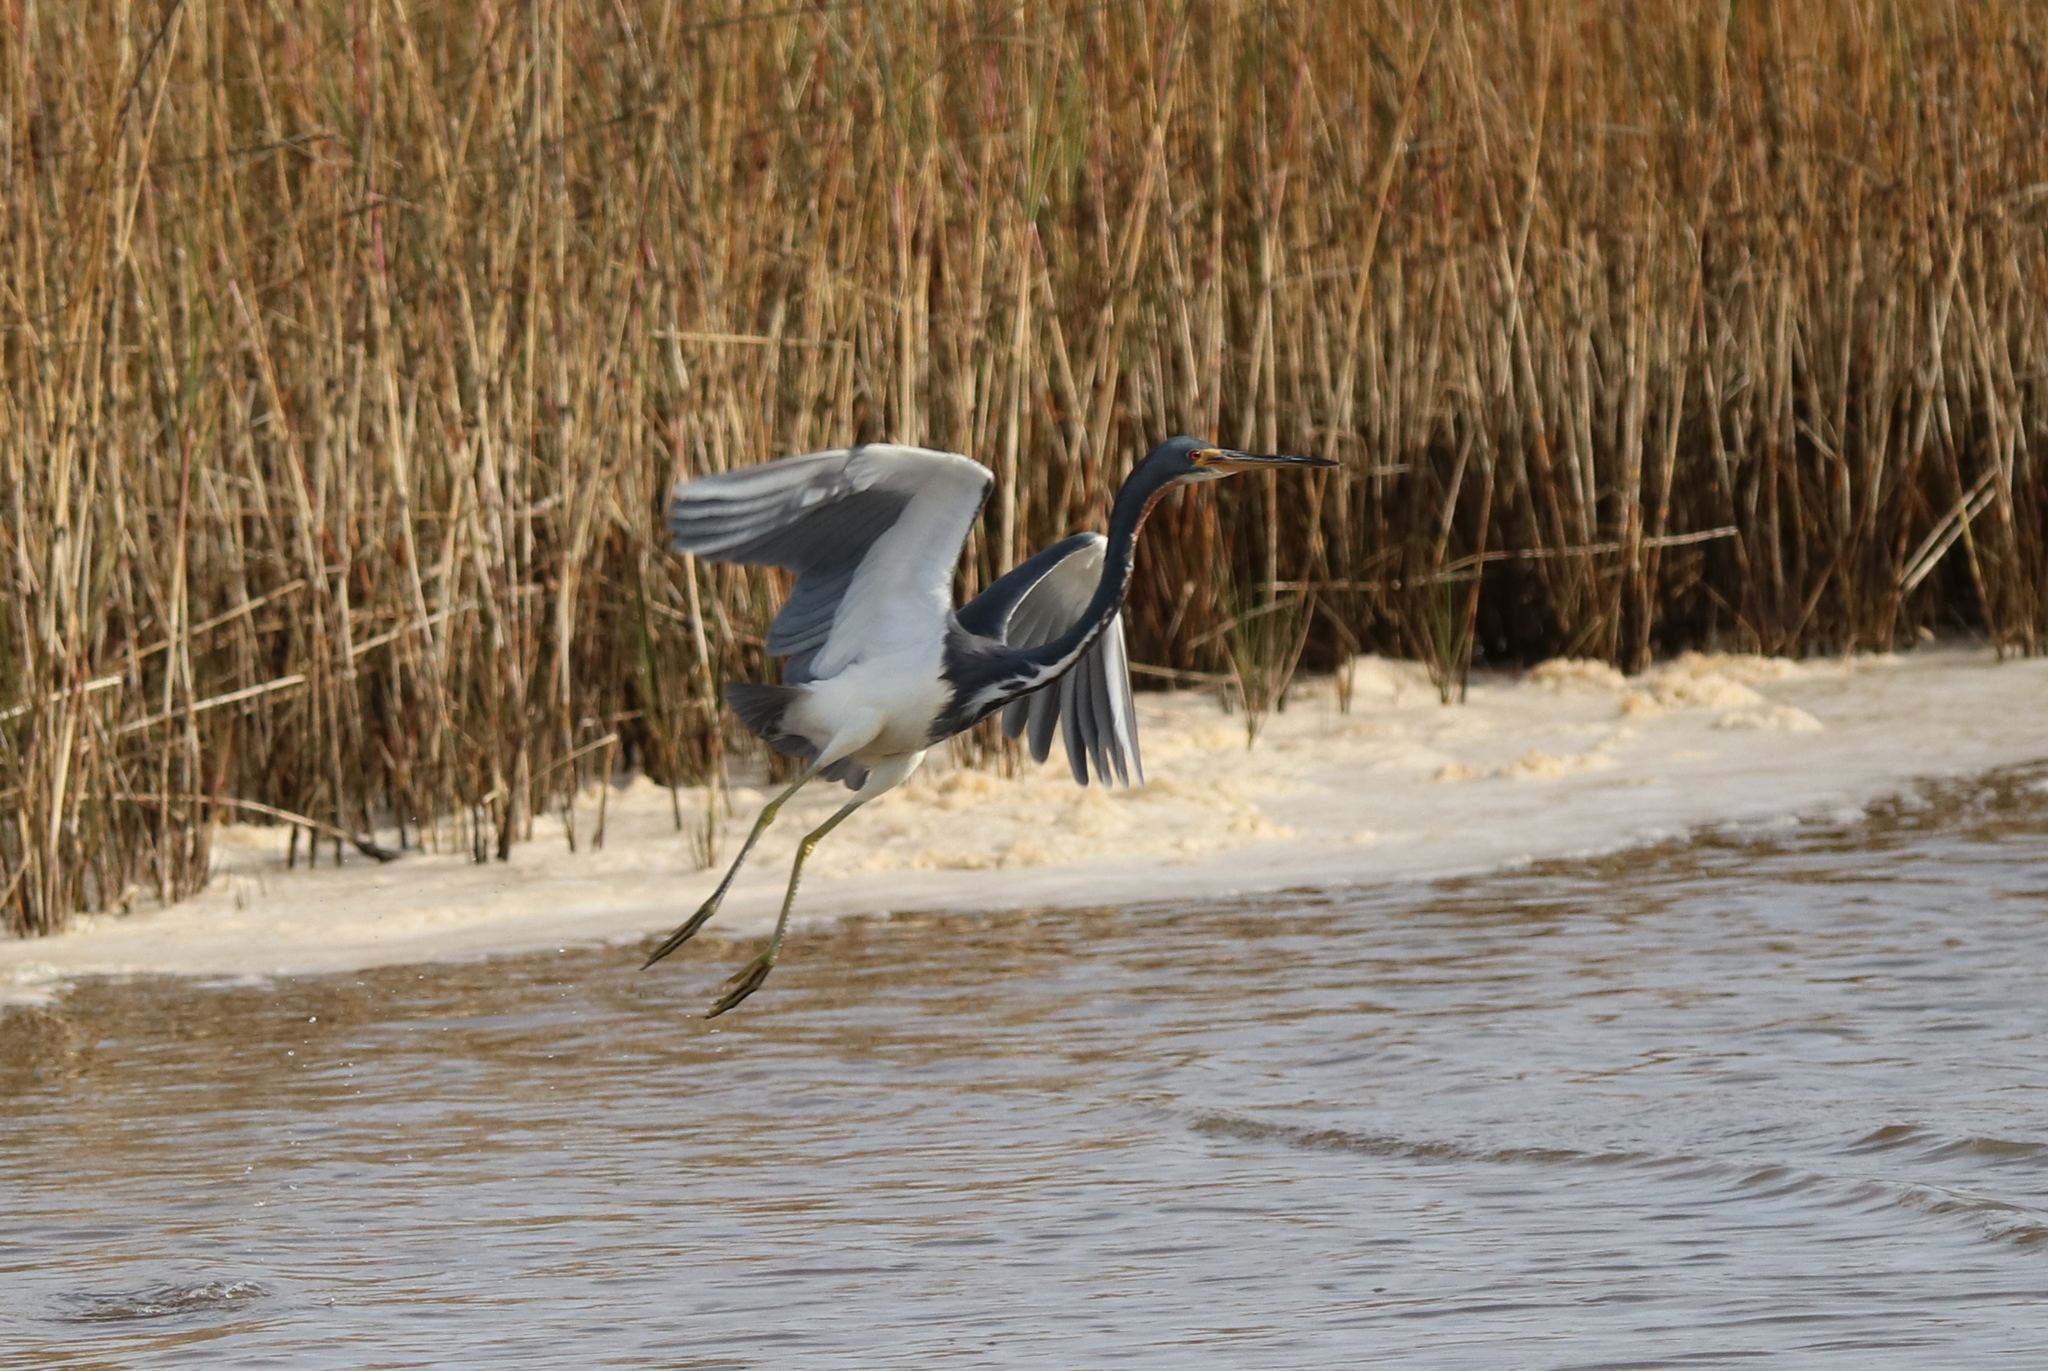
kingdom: Animalia
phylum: Chordata
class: Aves
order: Pelecaniformes
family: Ardeidae
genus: Egretta
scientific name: Egretta tricolor
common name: Tricolored heron
